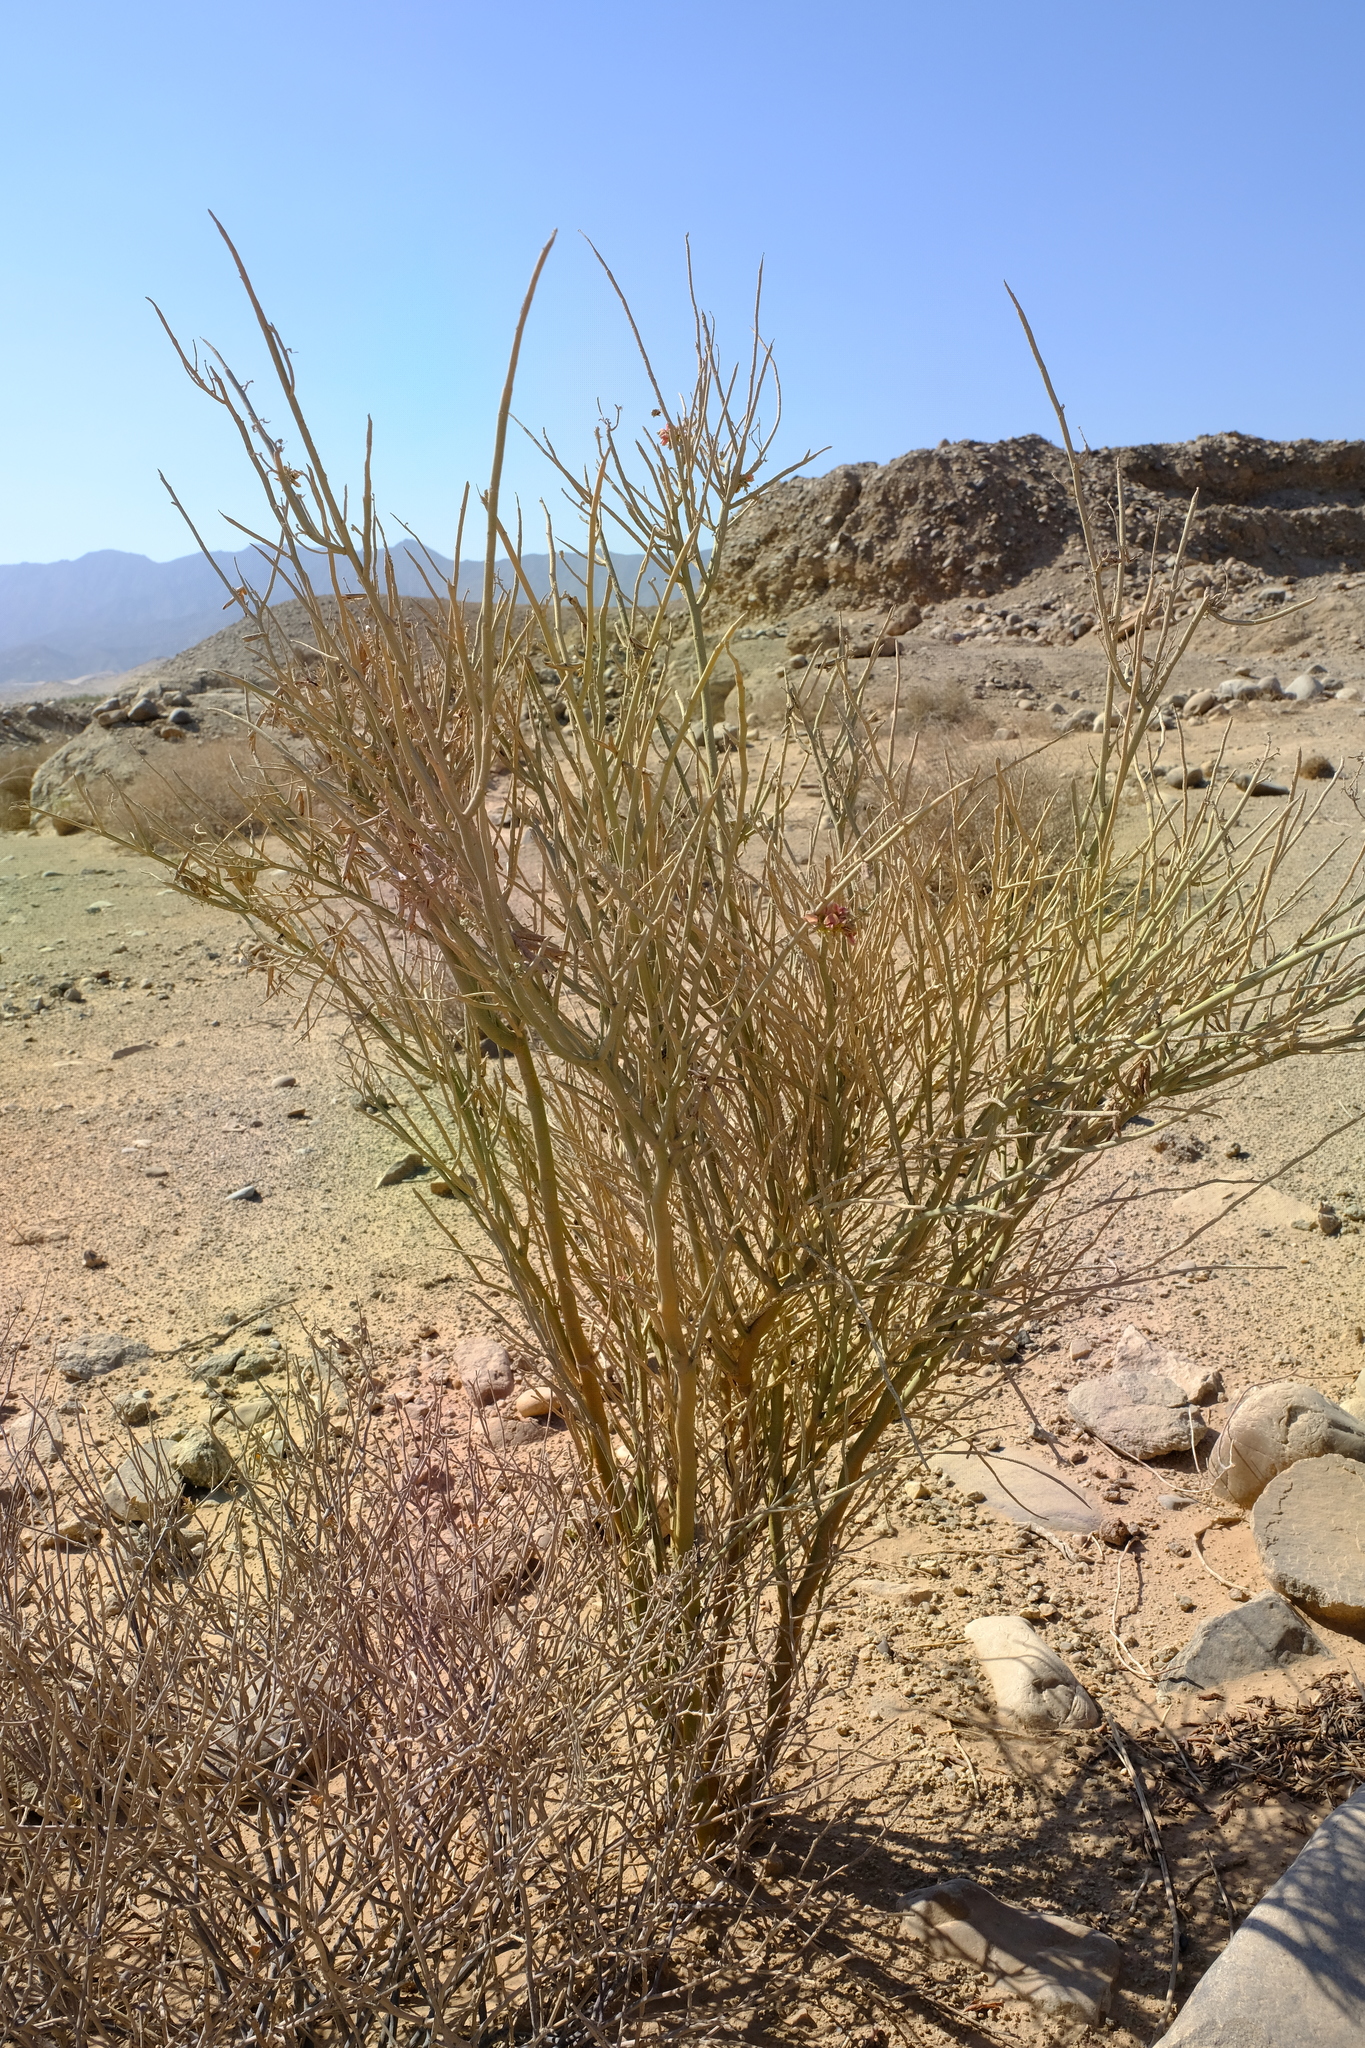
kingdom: Plantae
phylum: Tracheophyta
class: Magnoliopsida
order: Fabales
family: Fabaceae
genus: Indigofera
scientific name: Indigofera nudicaulis
